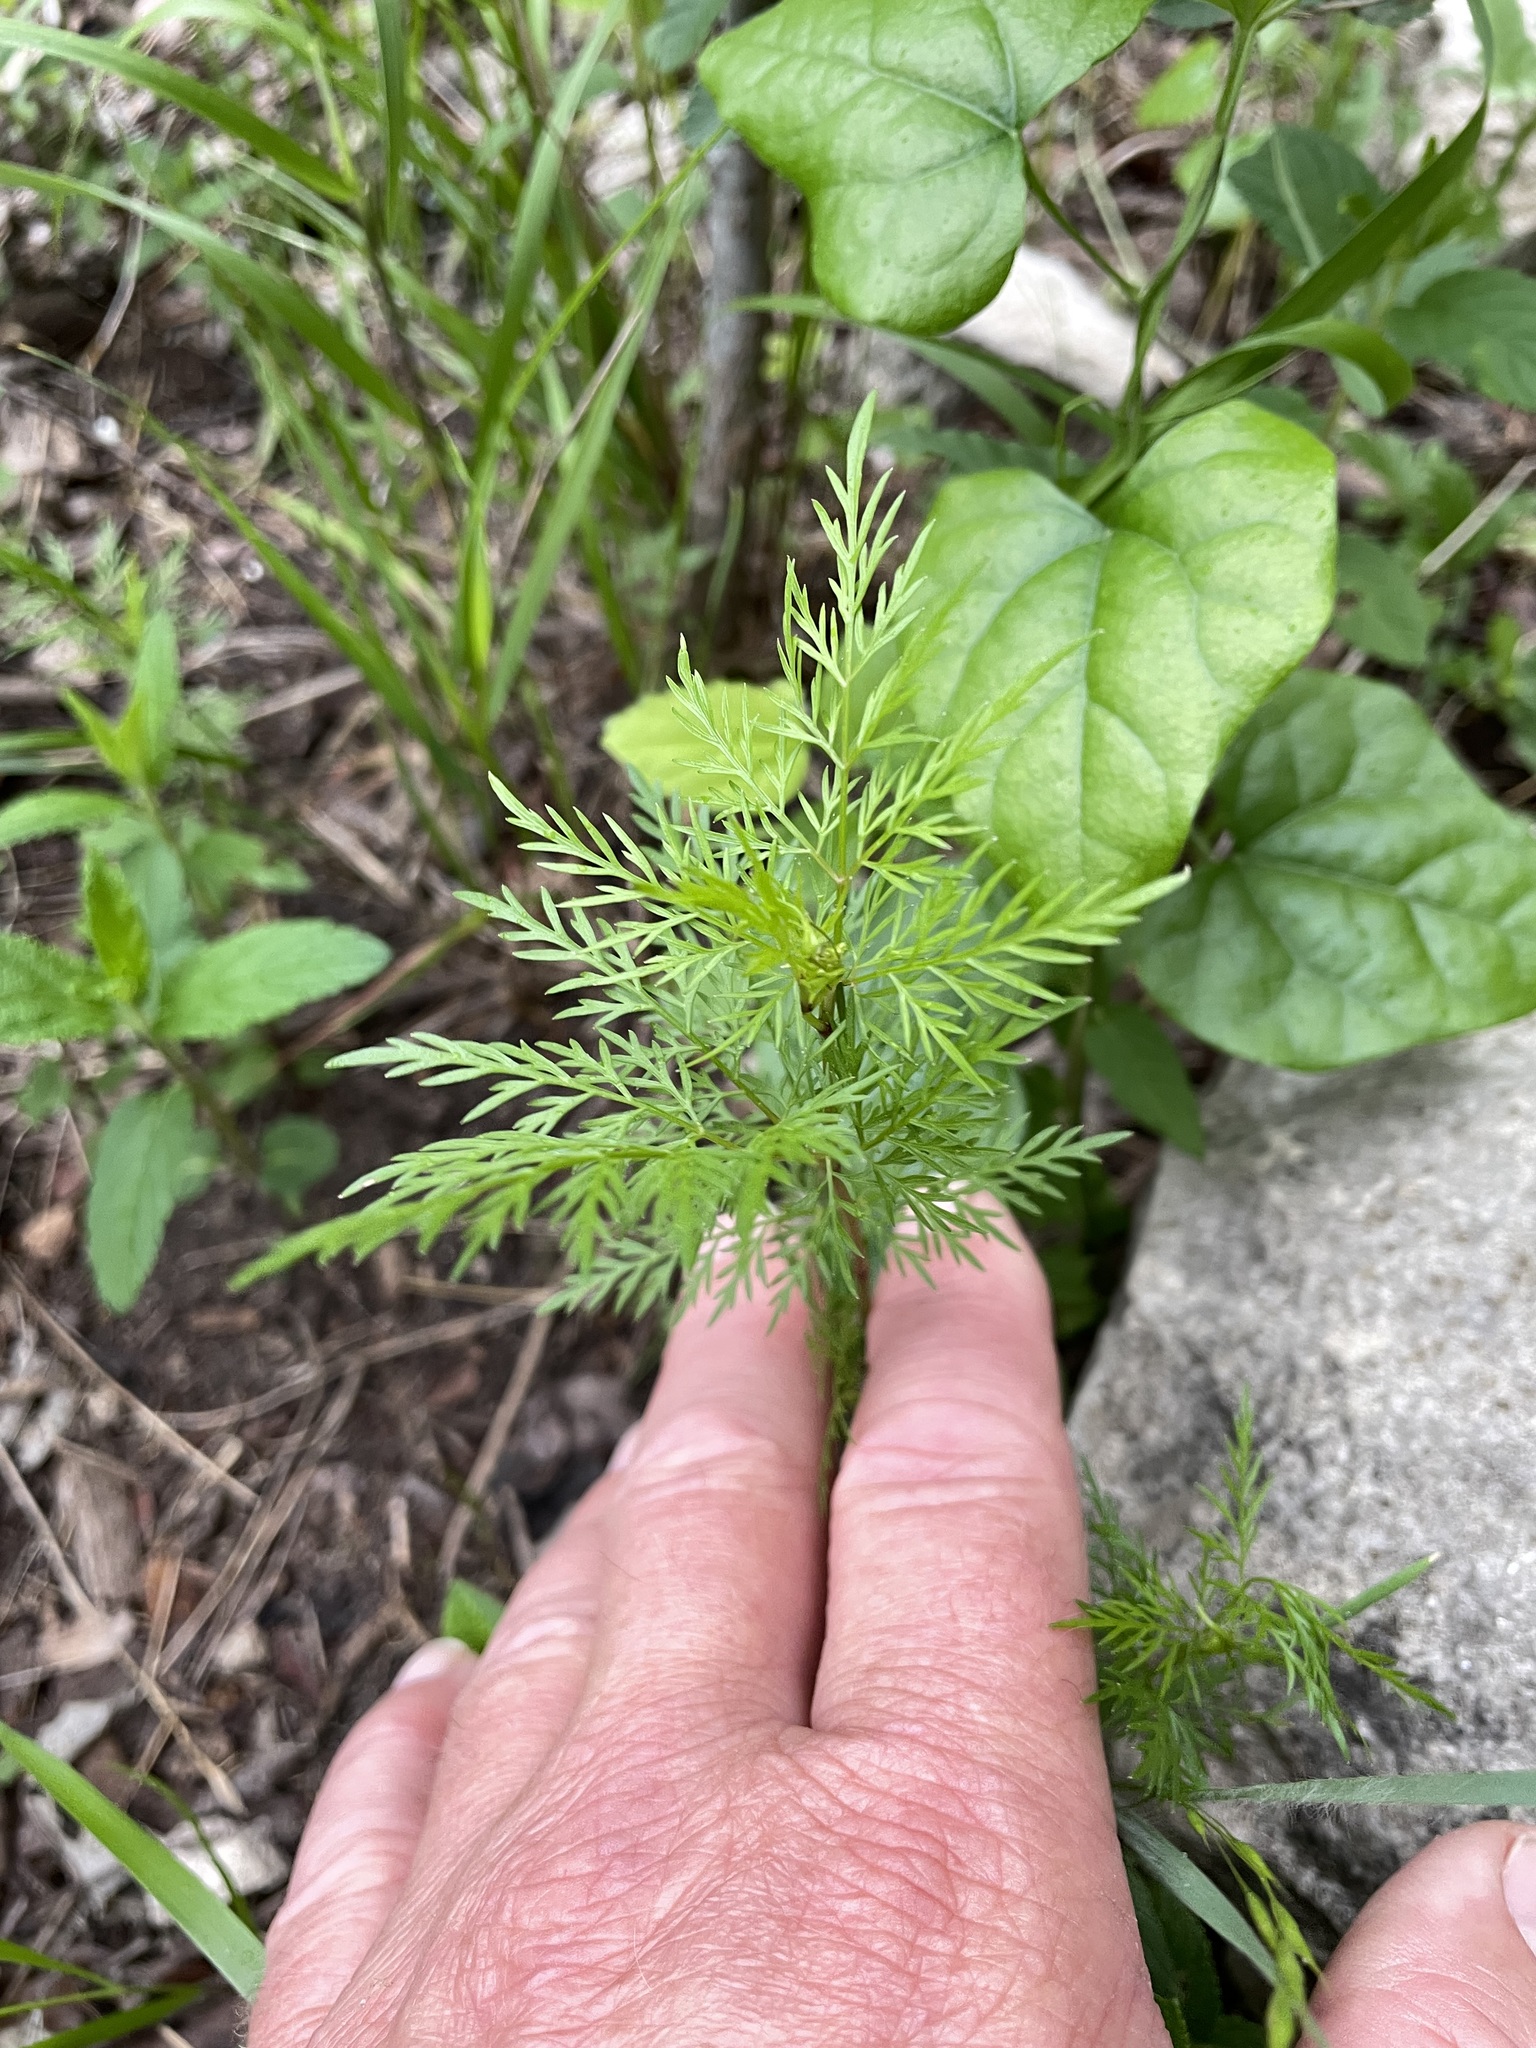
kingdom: Plantae
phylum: Tracheophyta
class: Magnoliopsida
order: Apiales
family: Apiaceae
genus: Trepocarpus
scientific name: Trepocarpus aethusae
